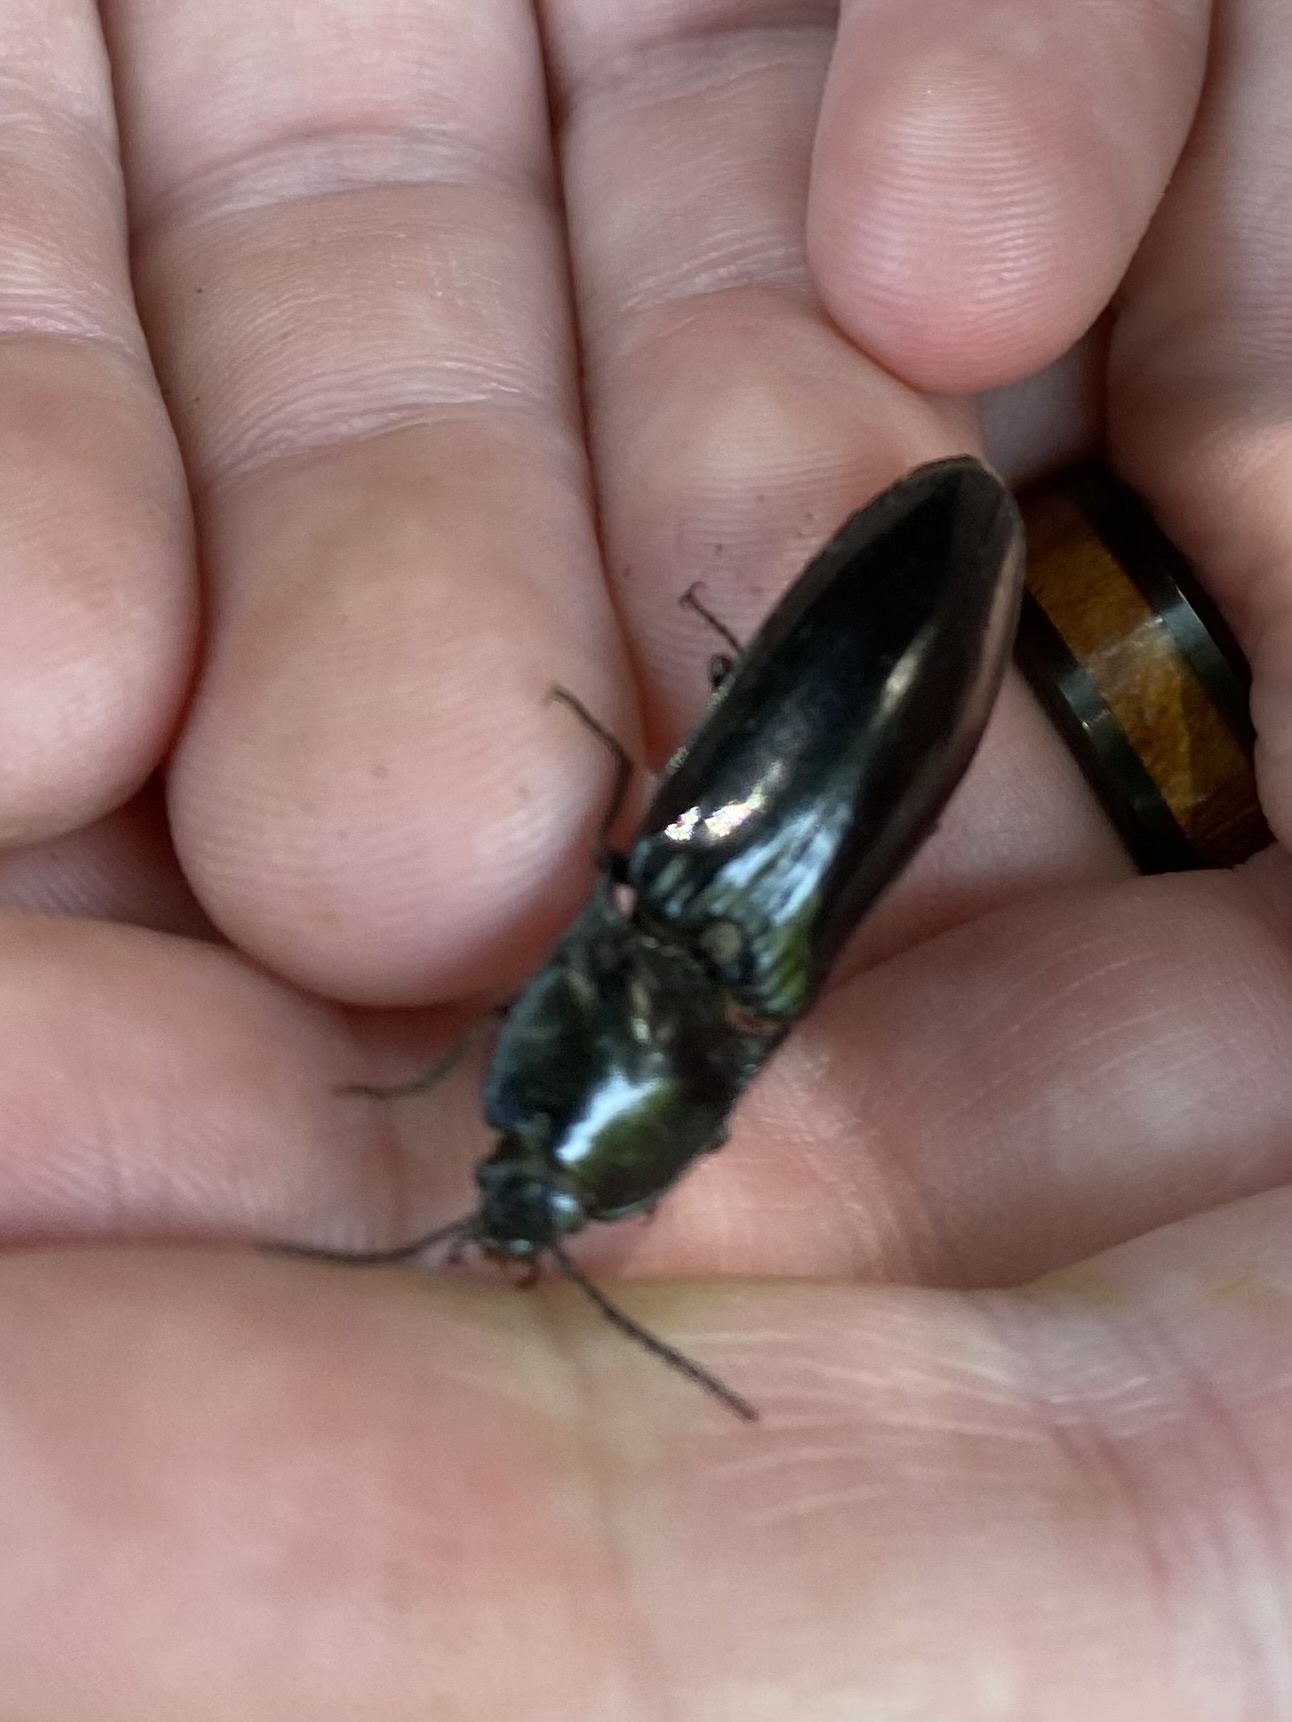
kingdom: Animalia
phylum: Arthropoda
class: Insecta
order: Coleoptera
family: Elateridae
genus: Melanactes
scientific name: Melanactes piceus
